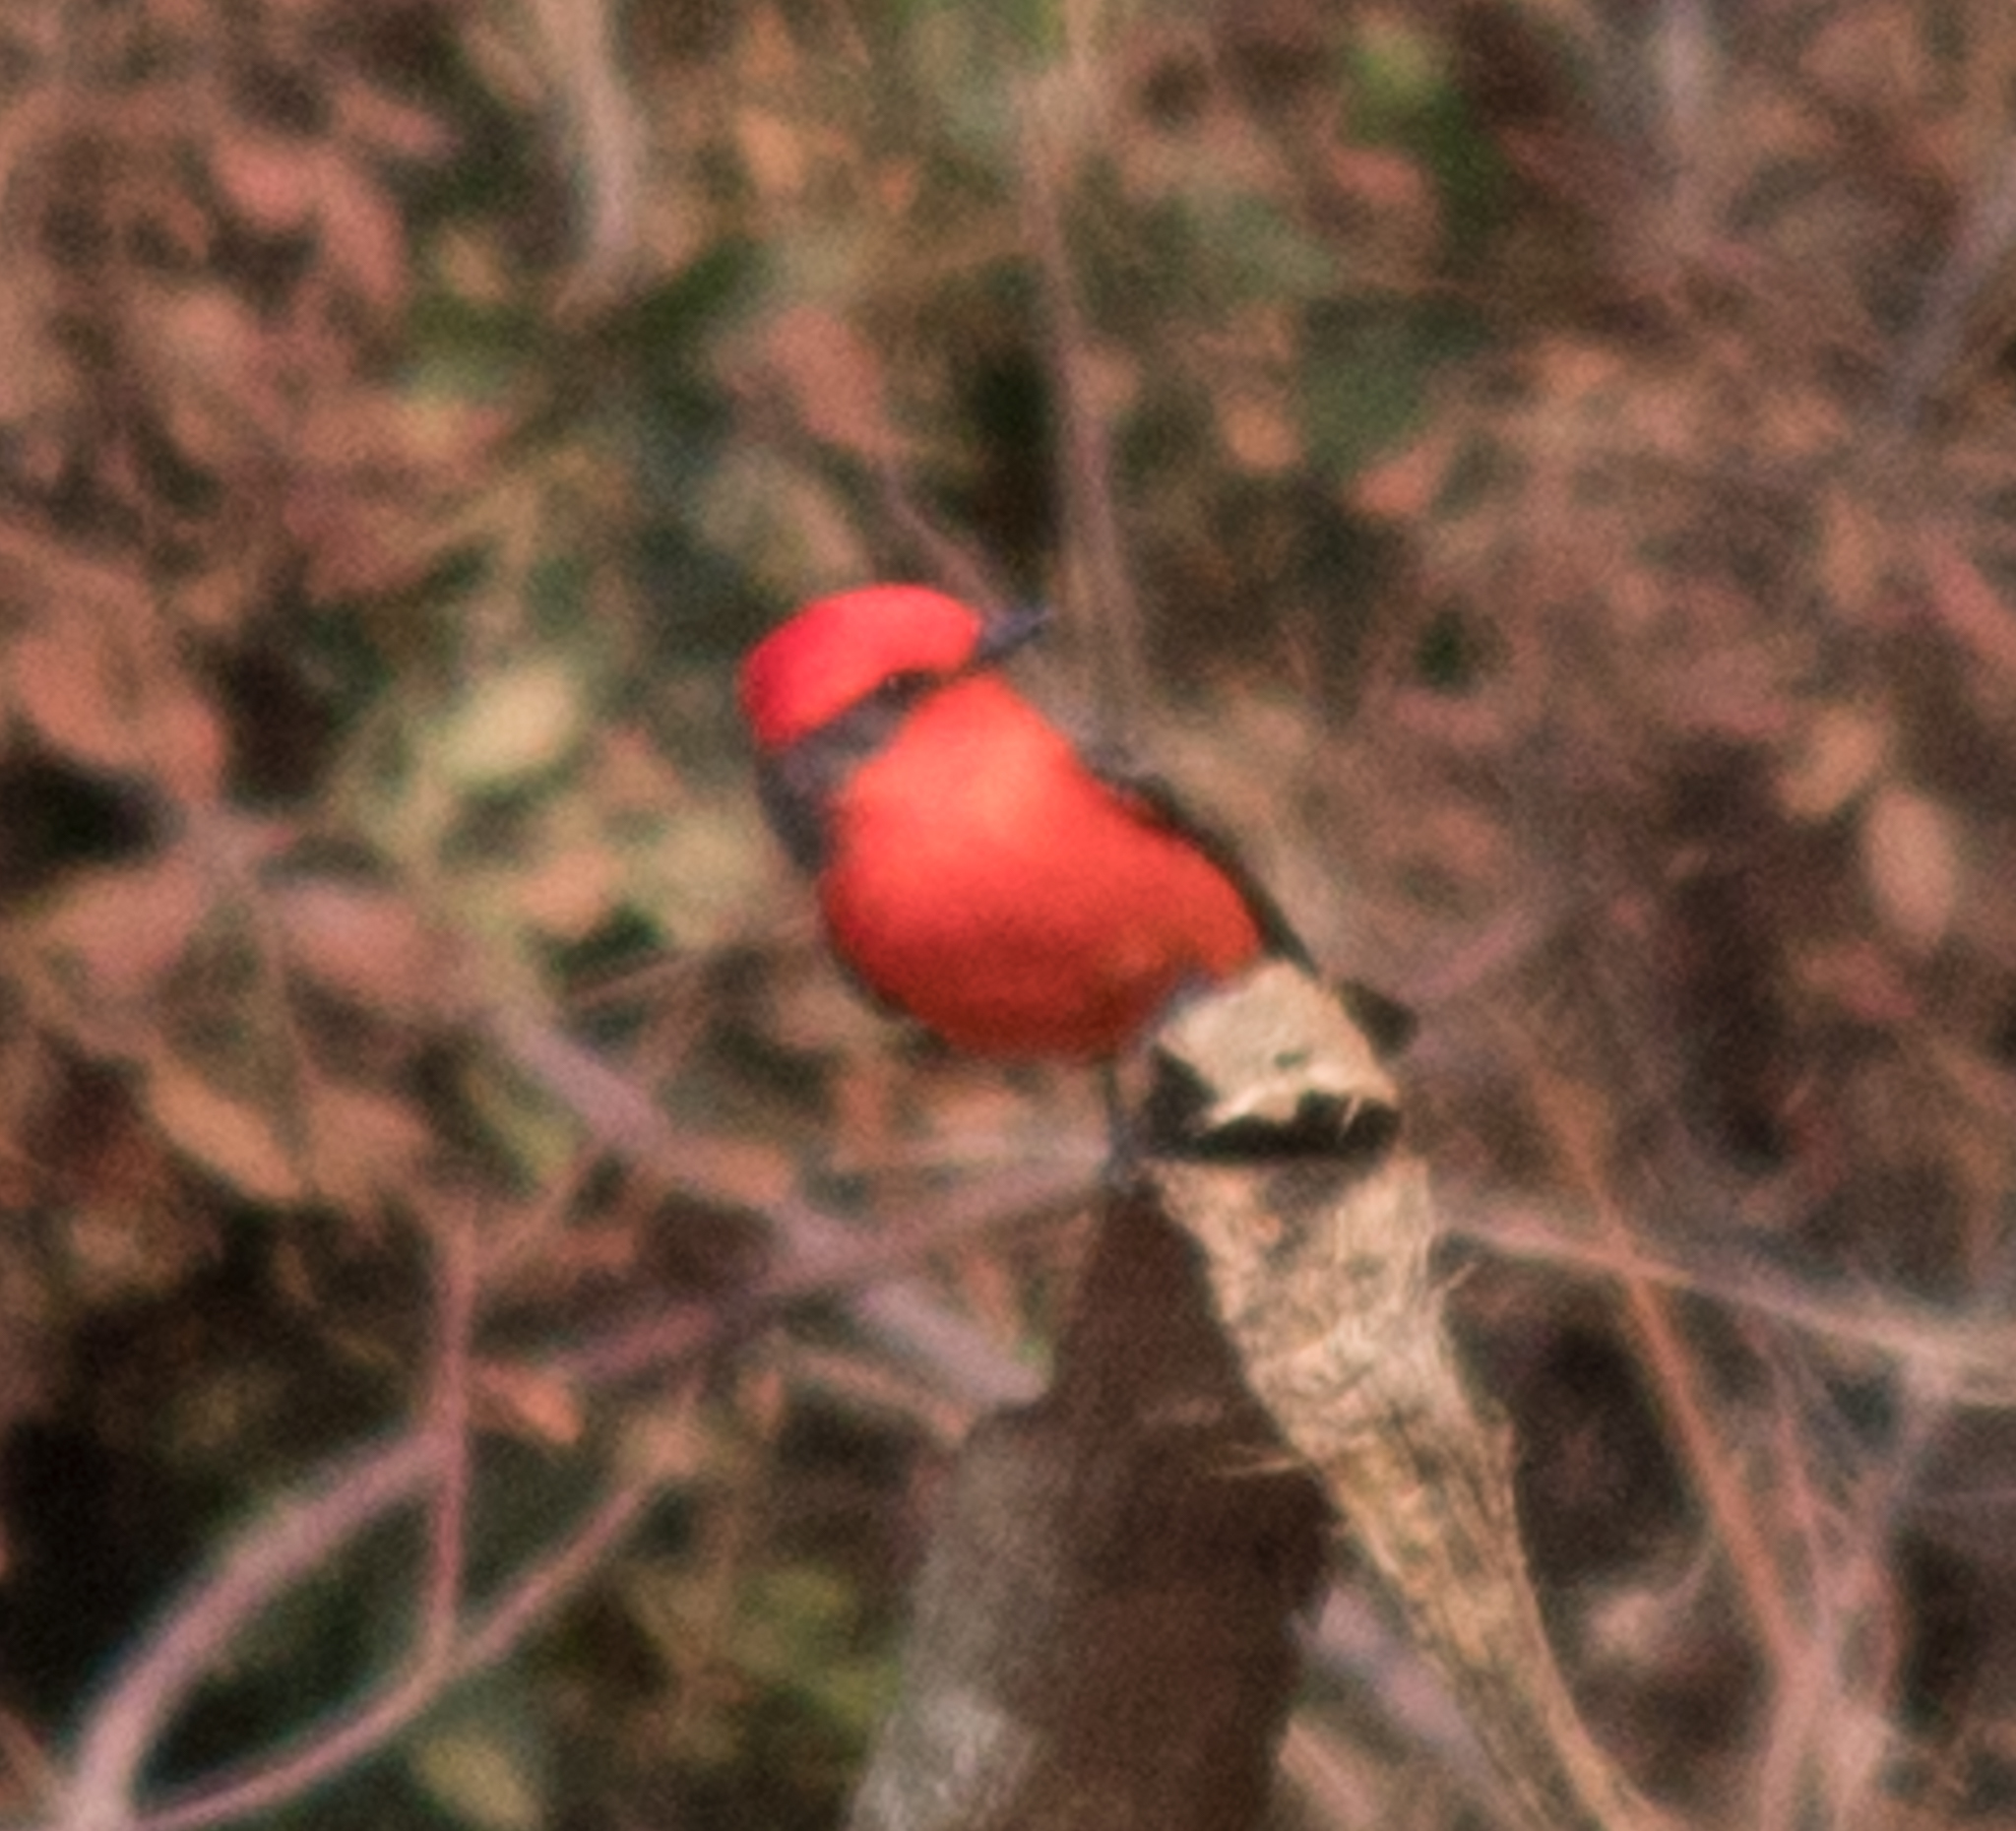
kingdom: Animalia
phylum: Chordata
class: Aves
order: Passeriformes
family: Tyrannidae
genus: Pyrocephalus
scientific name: Pyrocephalus rubinus
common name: Vermilion flycatcher
